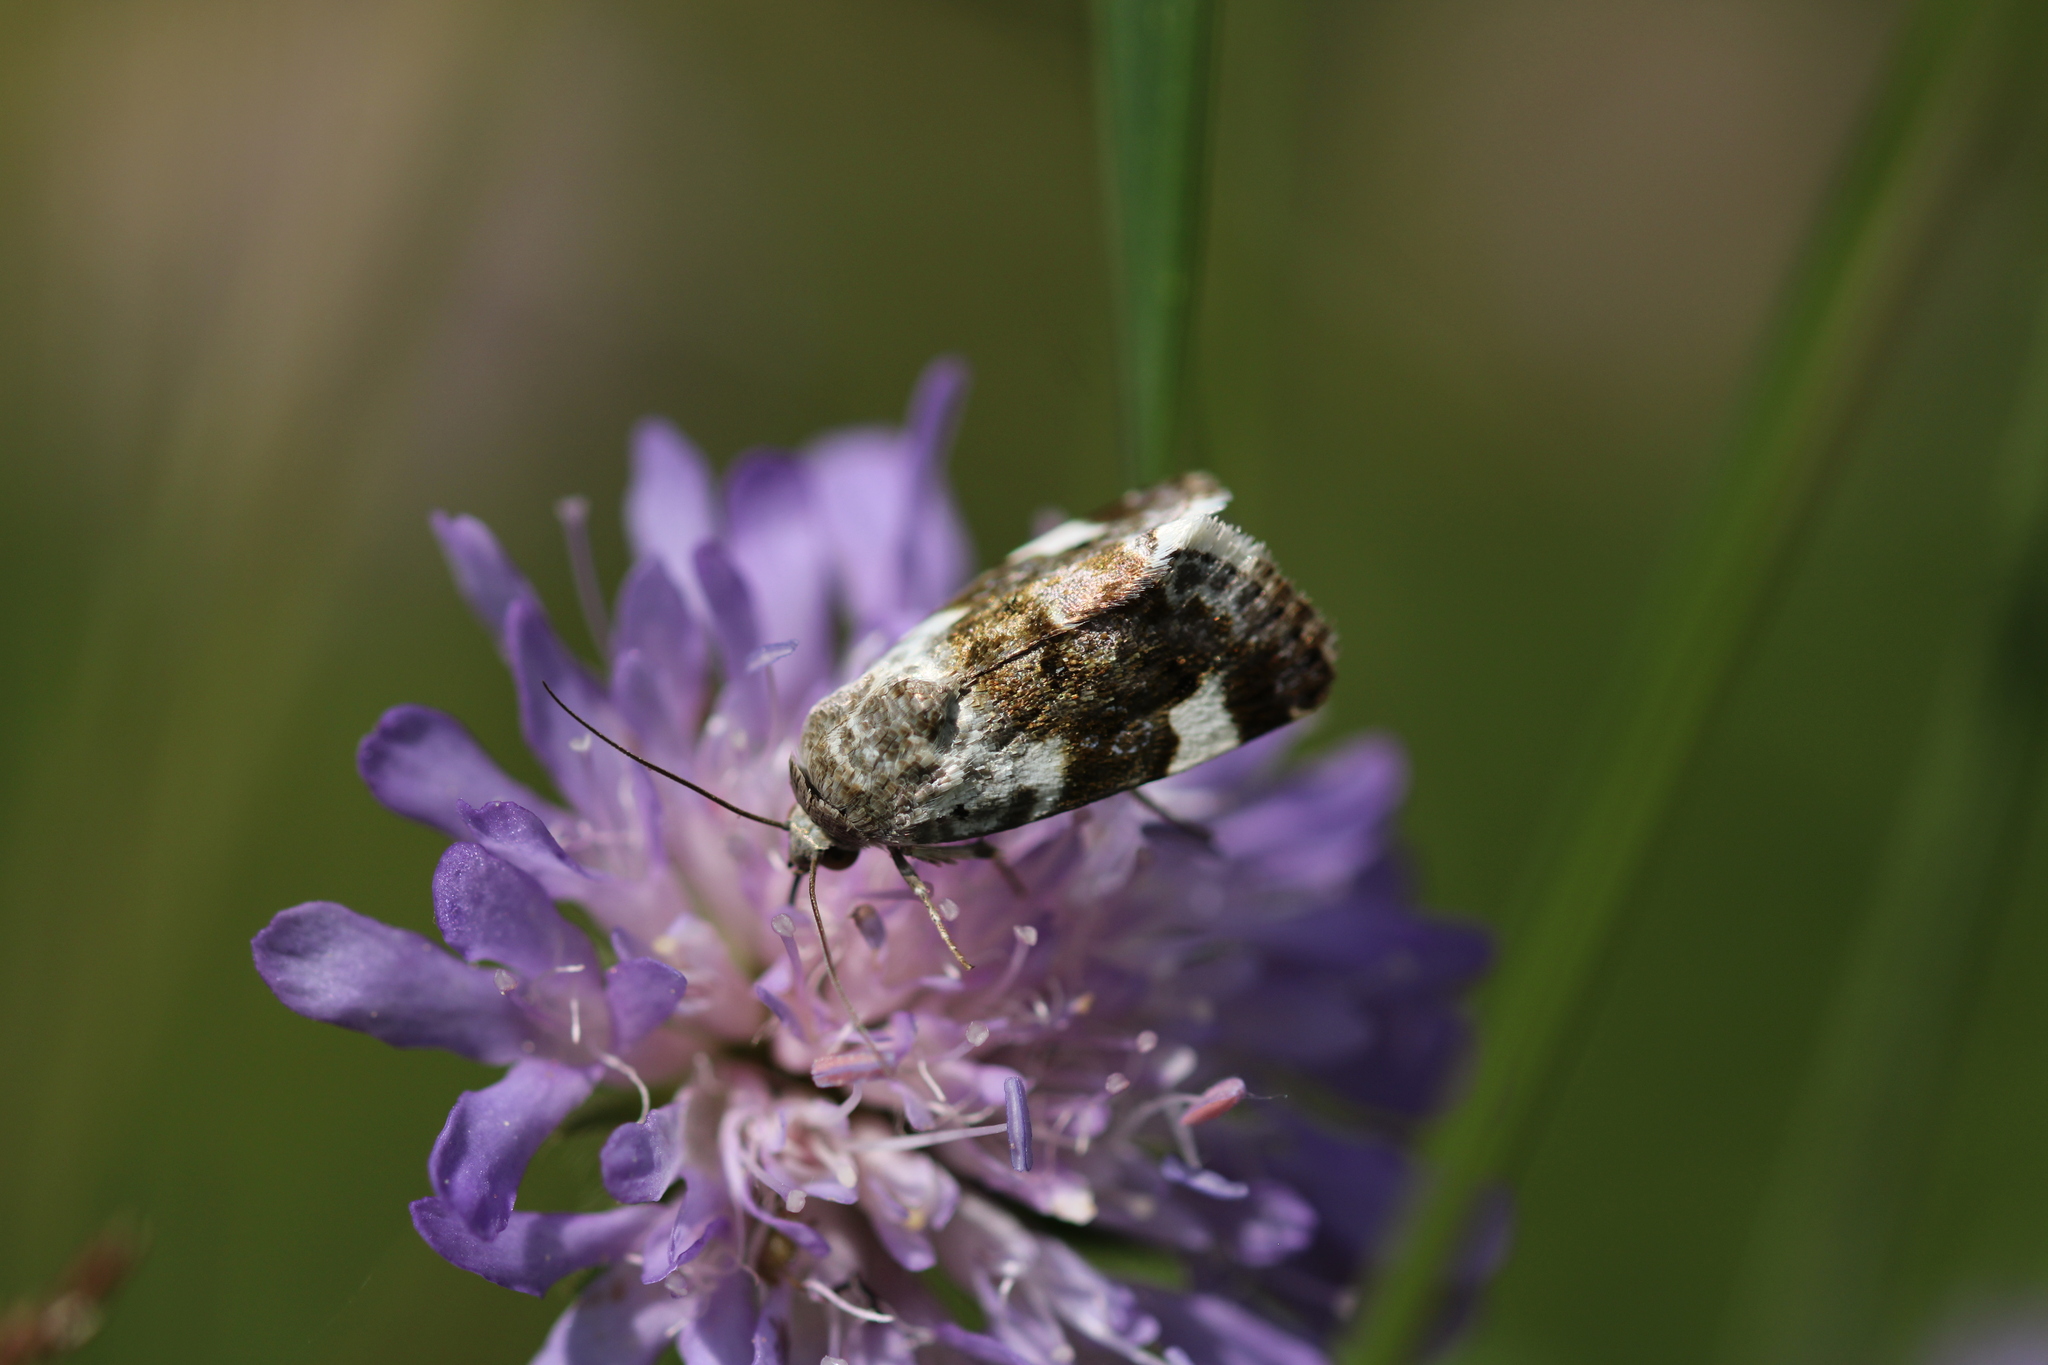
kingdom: Animalia
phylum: Arthropoda
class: Insecta
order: Lepidoptera
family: Noctuidae
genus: Acontia
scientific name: Acontia lucida
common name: Pale shoulder
